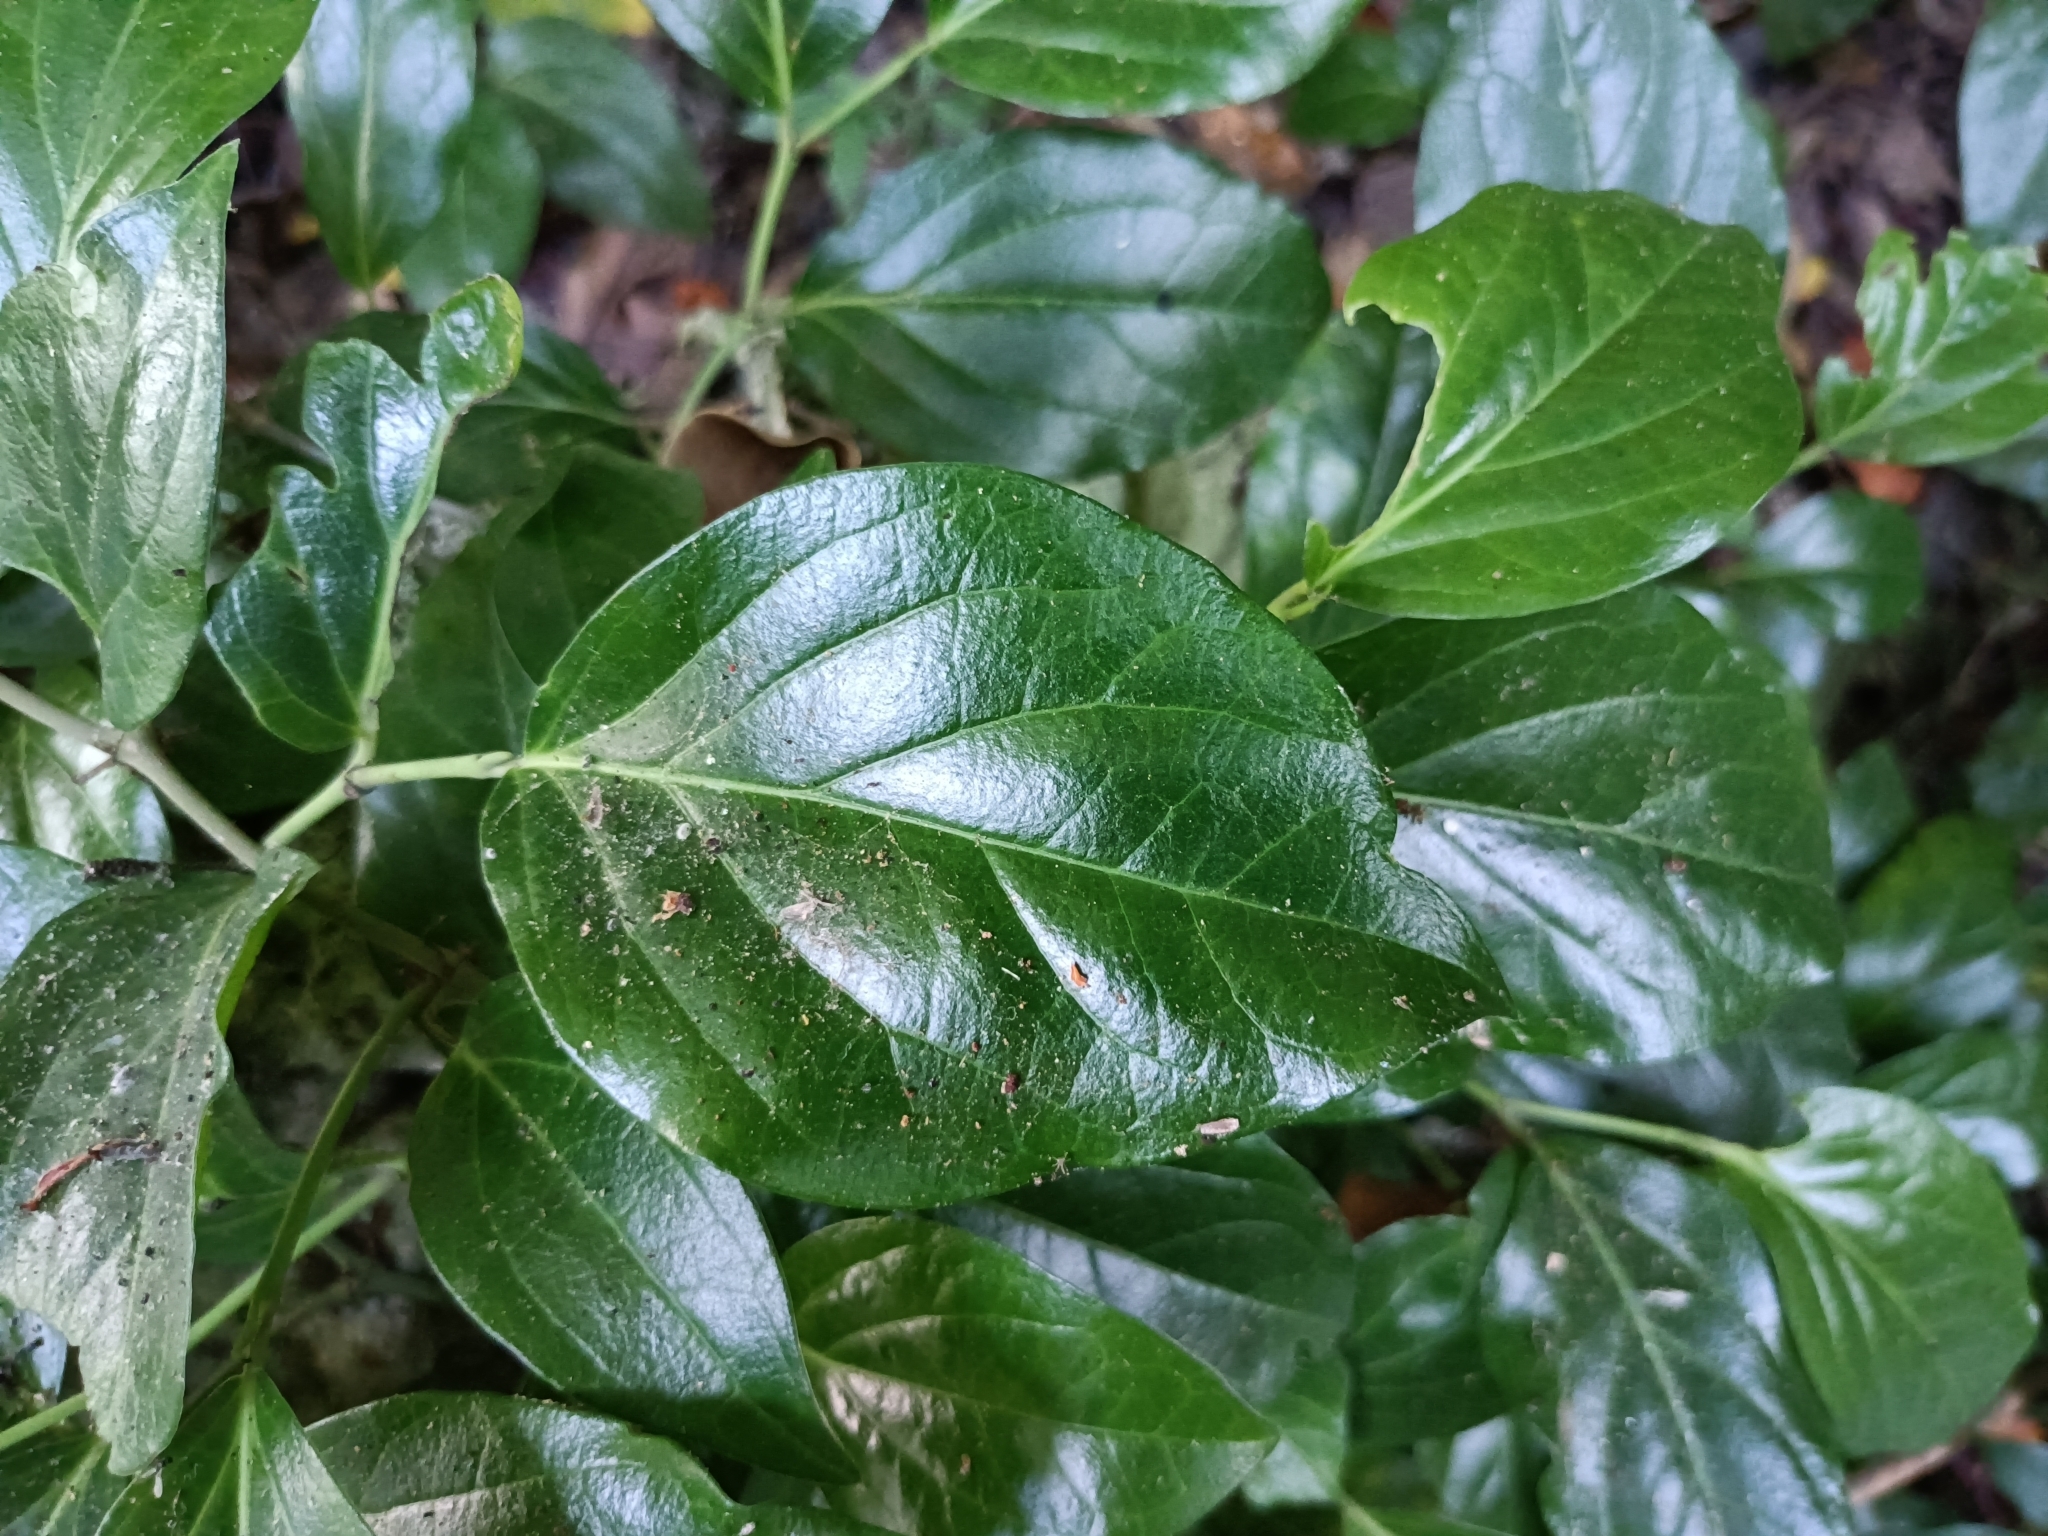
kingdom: Plantae
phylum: Tracheophyta
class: Magnoliopsida
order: Boraginales
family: Ehretiaceae
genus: Ehretia
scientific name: Ehretia resinosa
